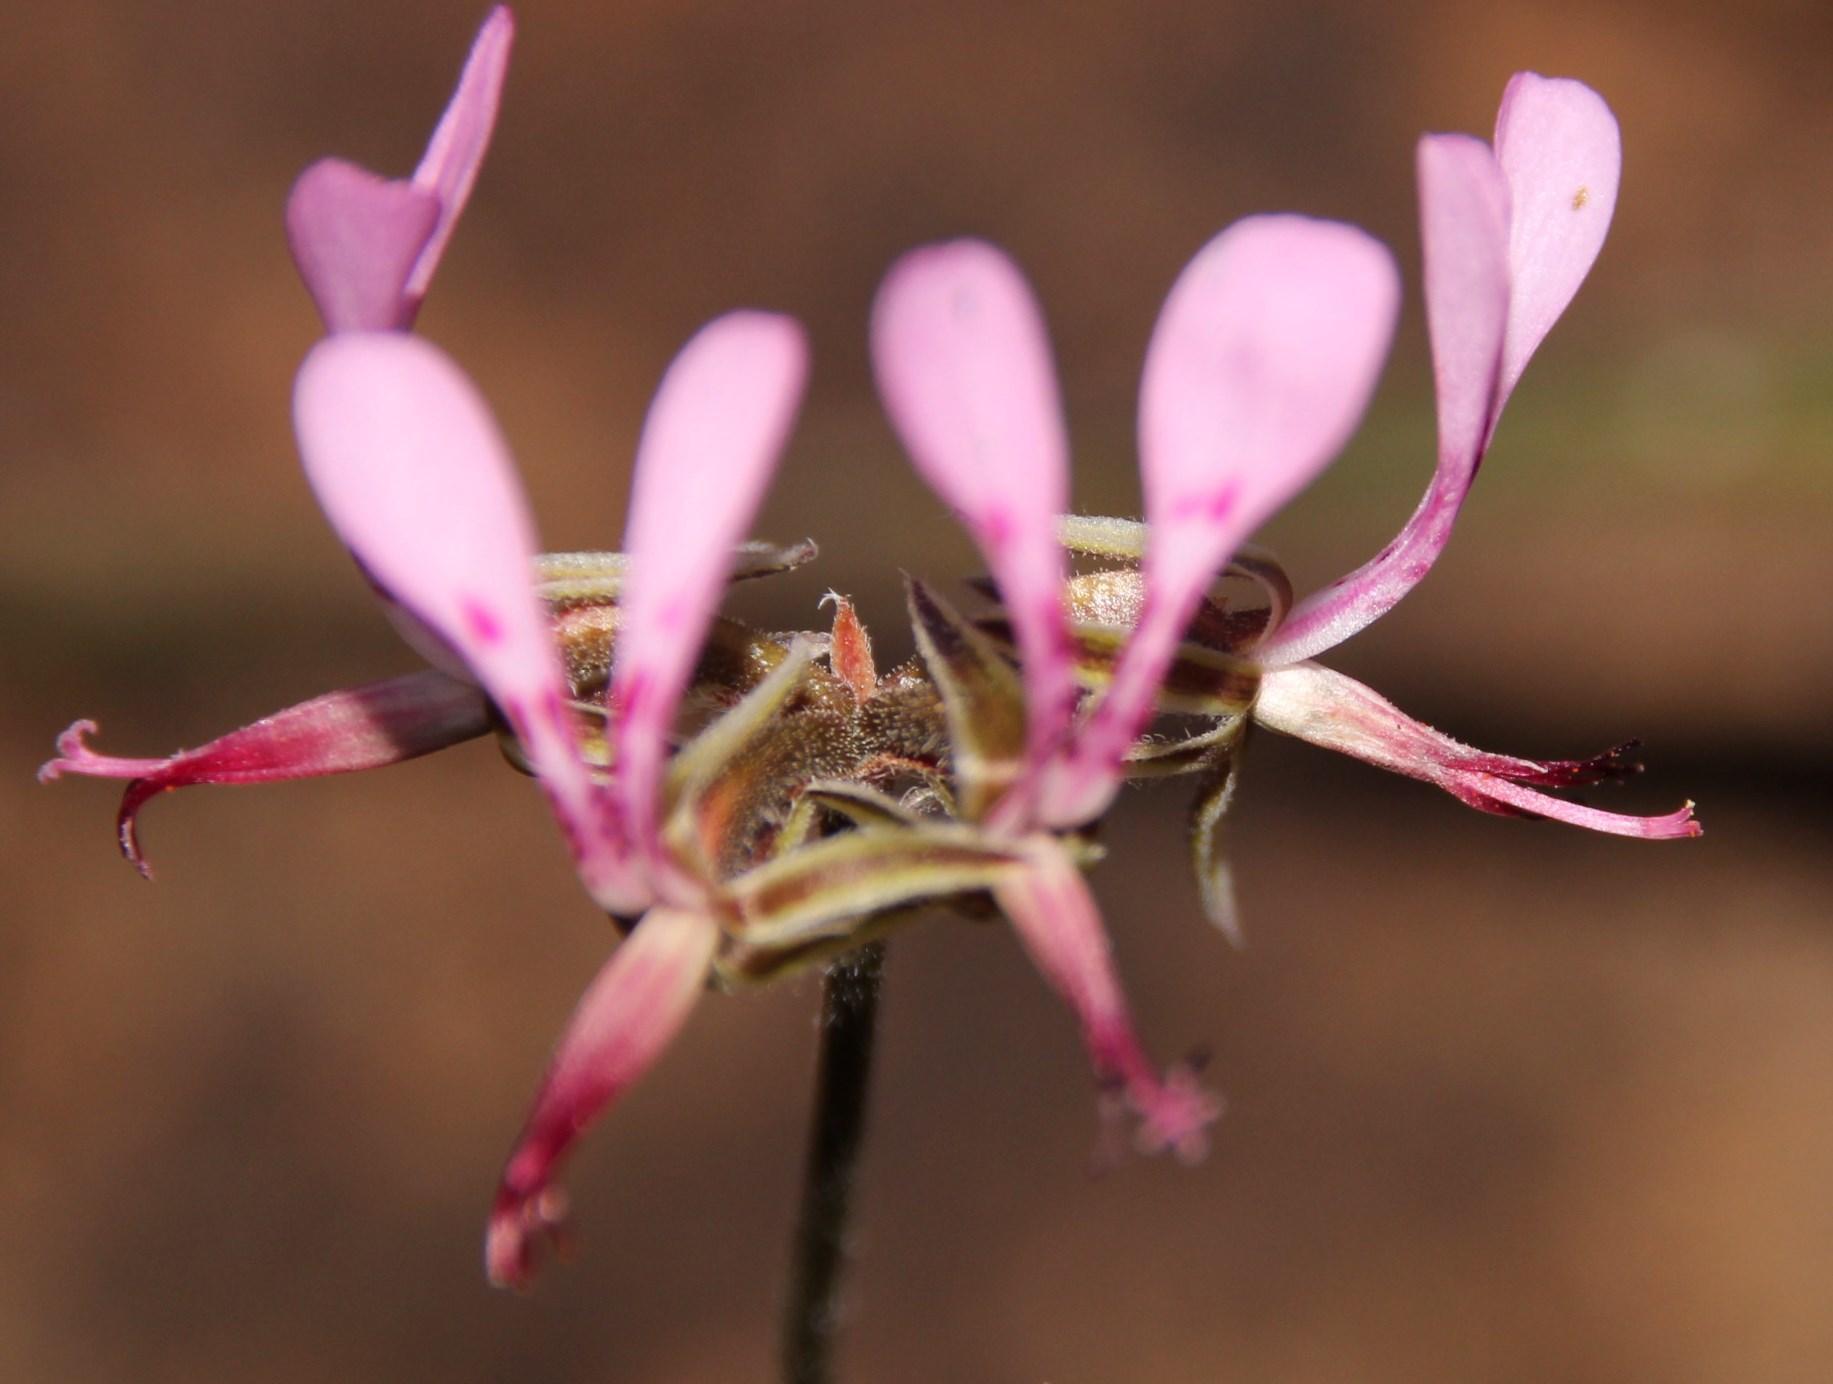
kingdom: Plantae
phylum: Tracheophyta
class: Magnoliopsida
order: Geraniales
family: Geraniaceae
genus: Pelargonium
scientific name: Pelargonium ternifolium
